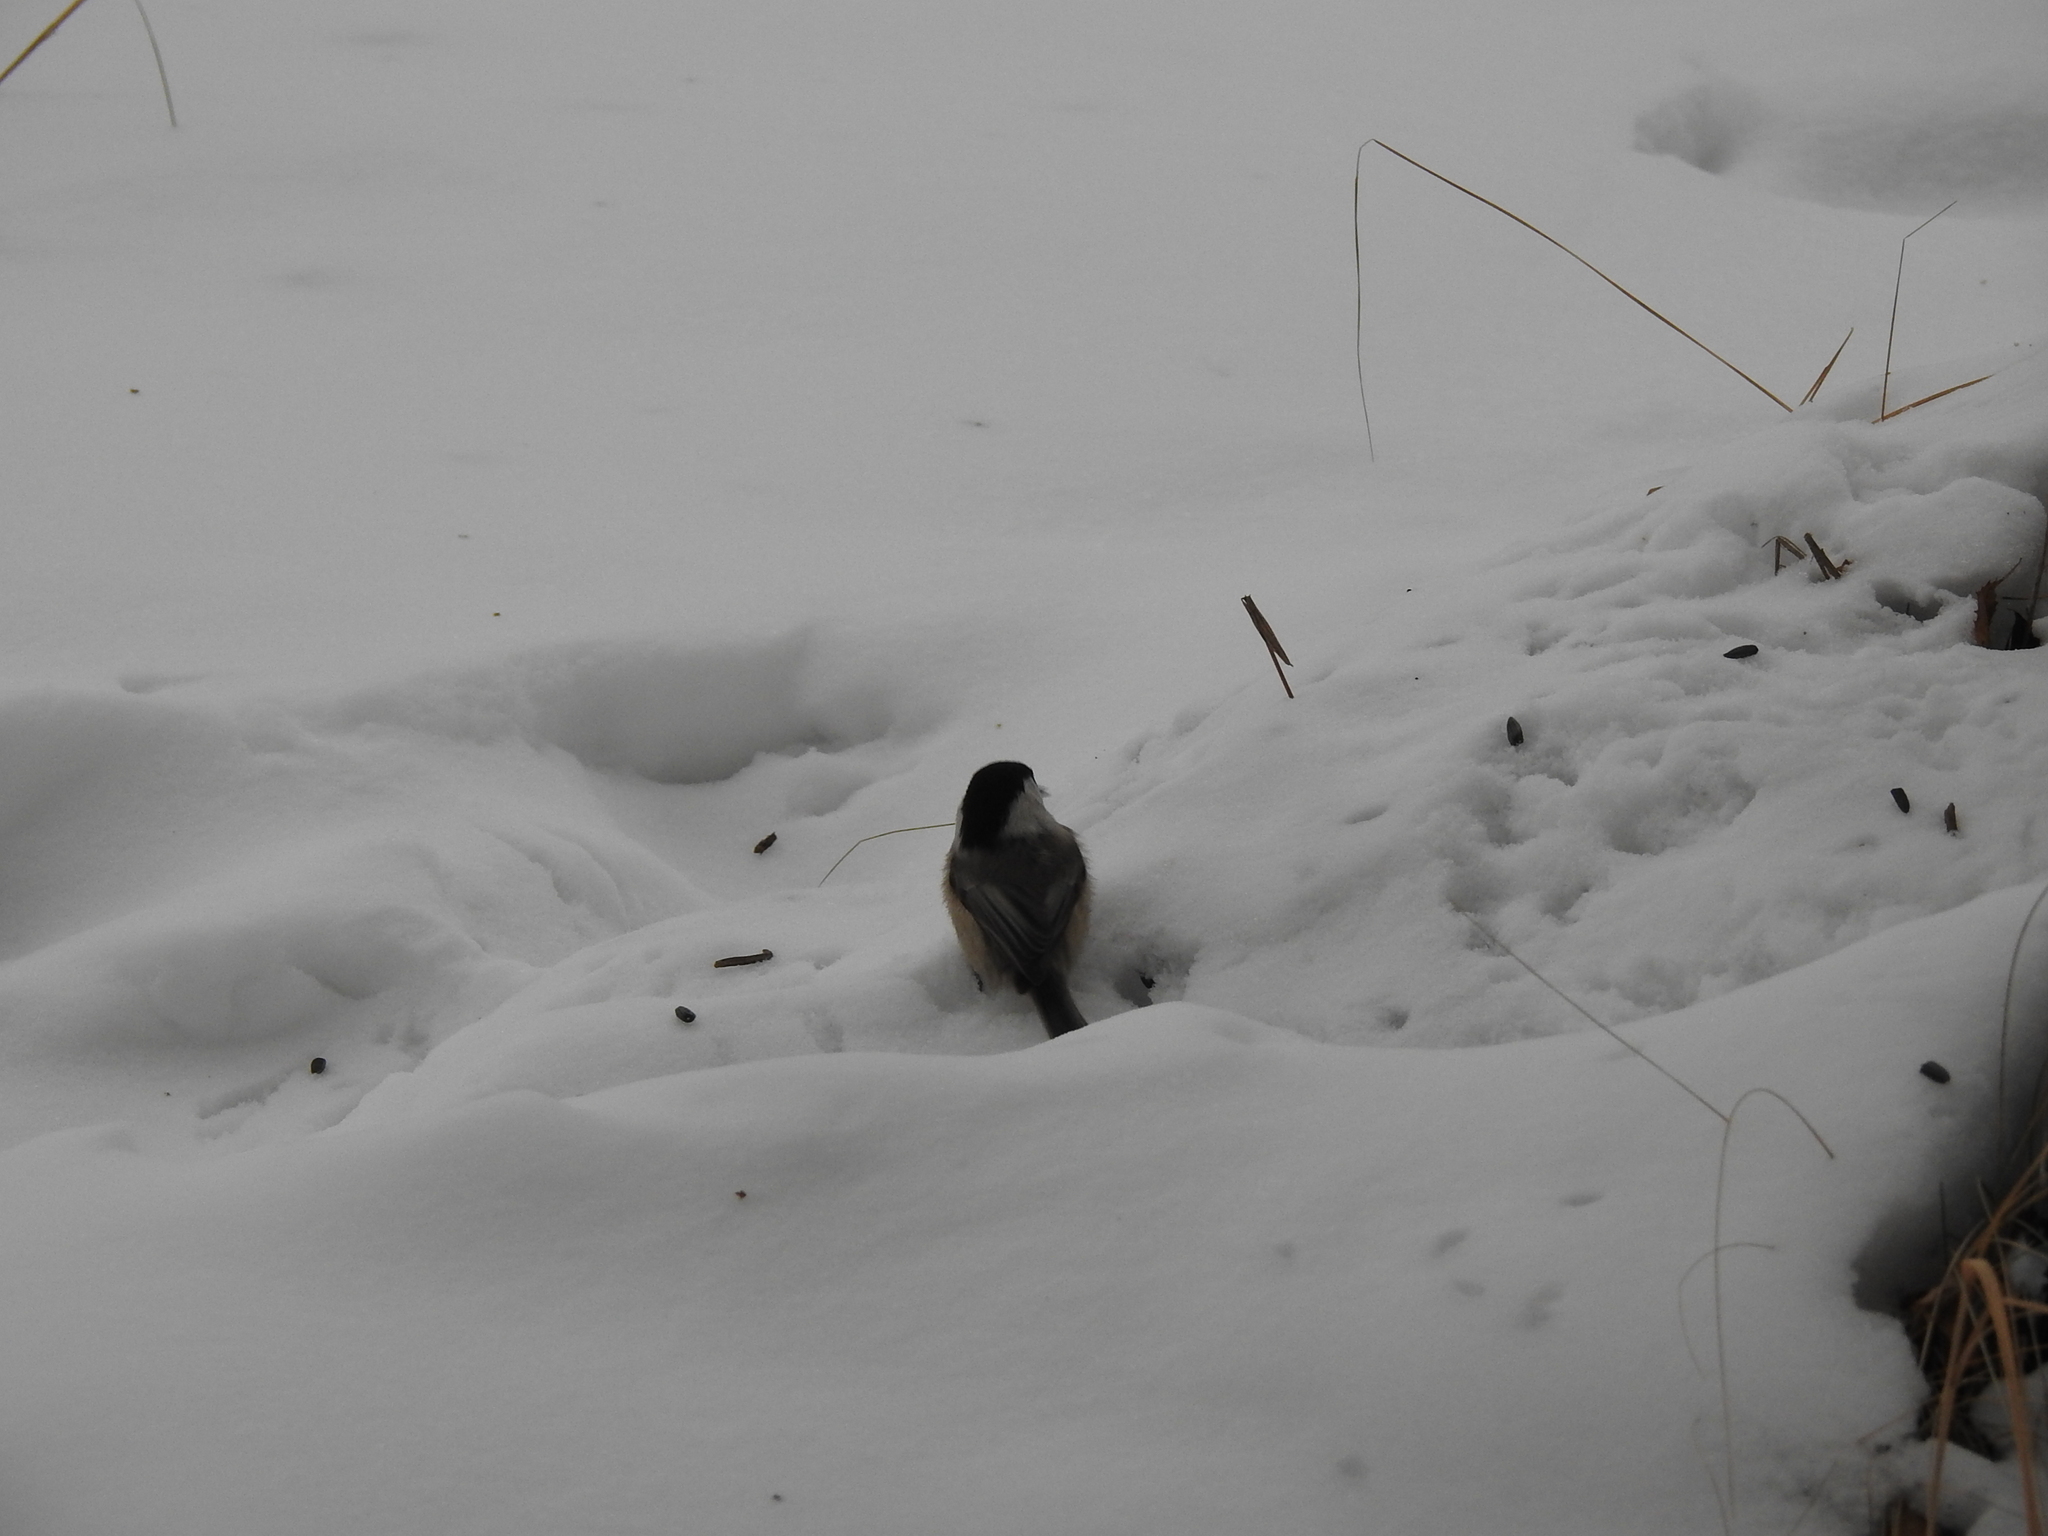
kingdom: Animalia
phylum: Chordata
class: Aves
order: Passeriformes
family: Paridae
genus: Poecile
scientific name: Poecile montanus
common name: Willow tit
